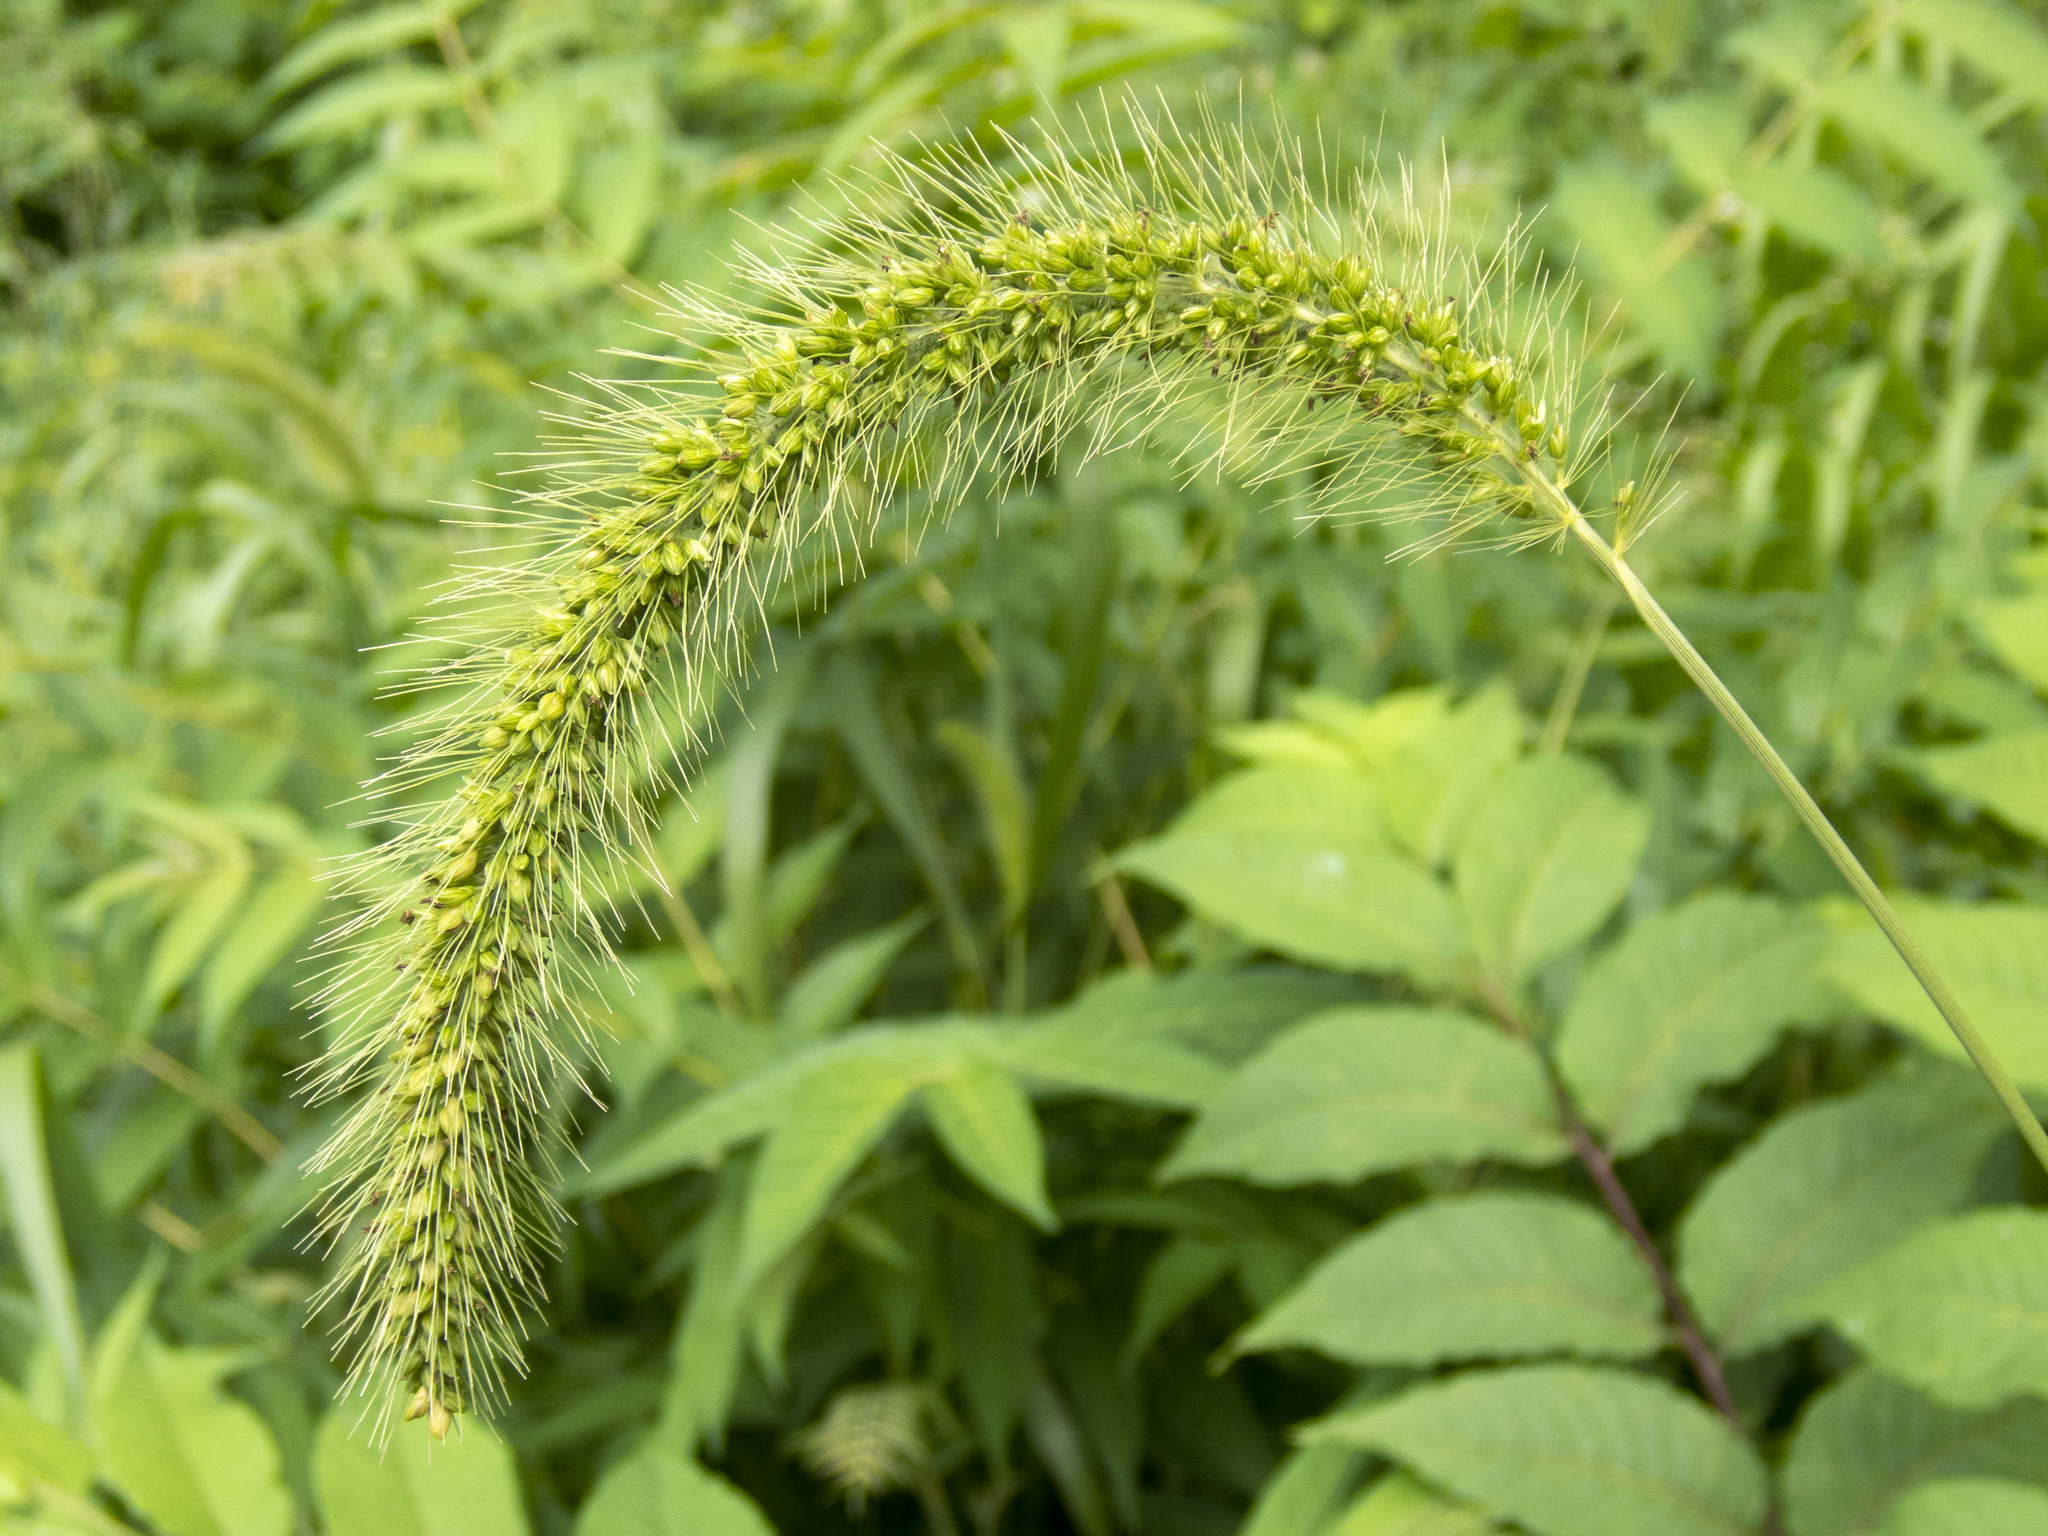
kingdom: Plantae
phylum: Tracheophyta
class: Liliopsida
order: Poales
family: Poaceae
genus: Setaria
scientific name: Setaria faberi
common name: Nodding bristle-grass
